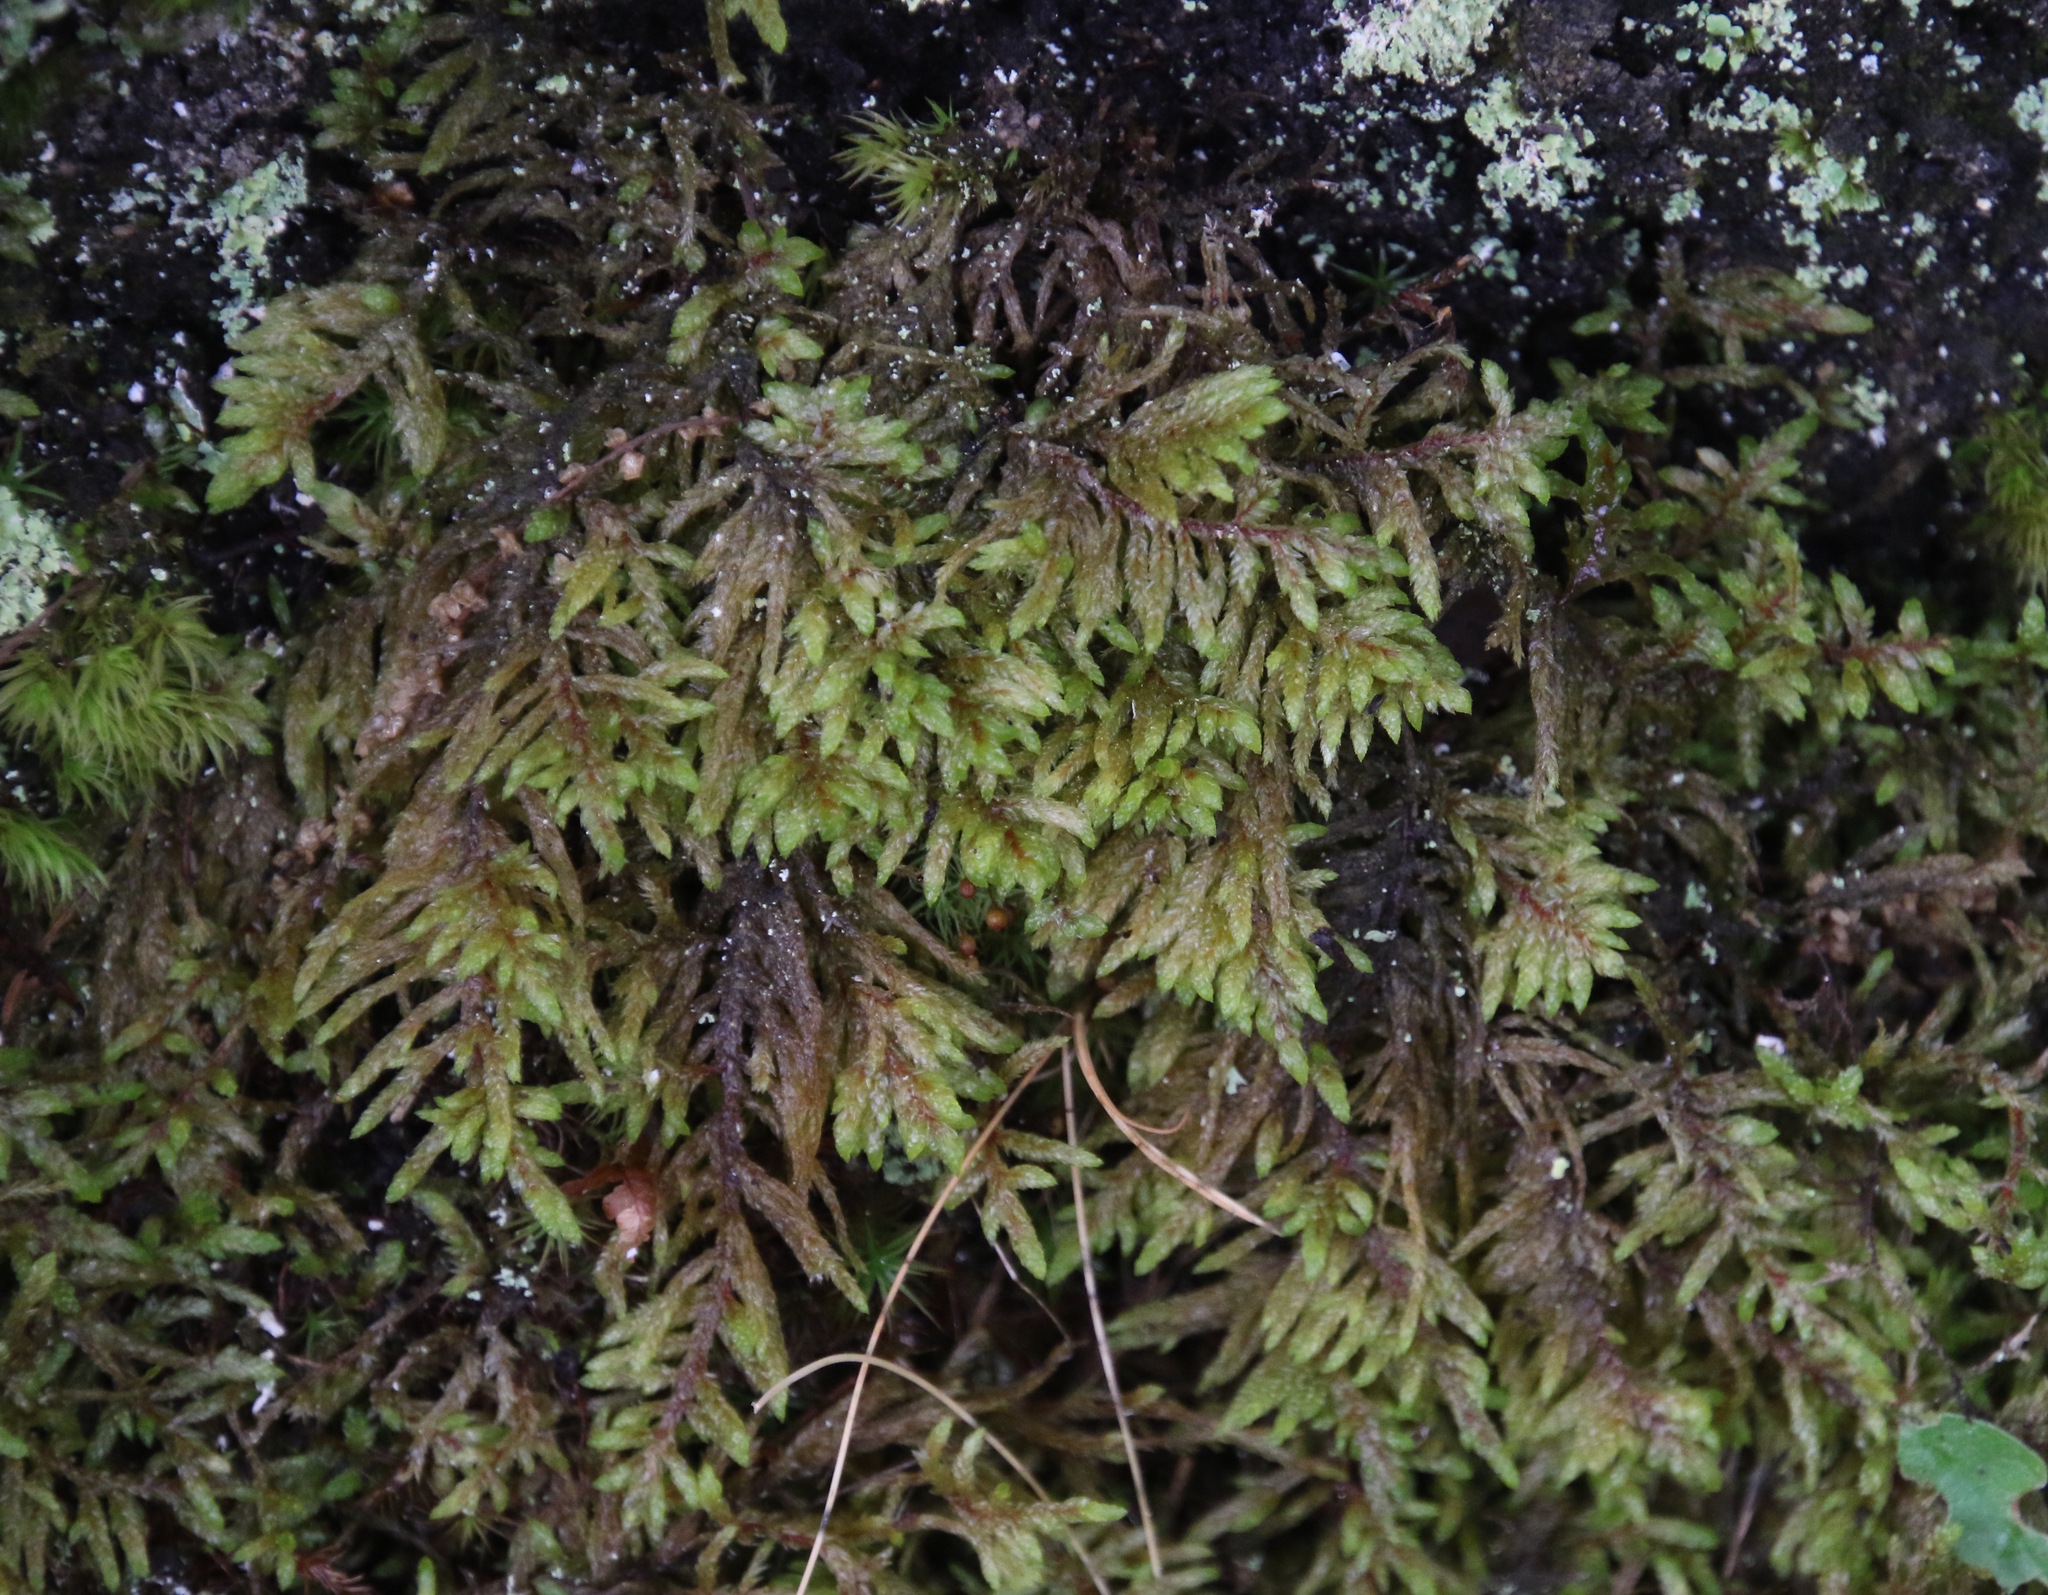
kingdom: Plantae
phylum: Bryophyta
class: Bryopsida
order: Hypnales
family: Hylocomiaceae
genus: Pleurozium
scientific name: Pleurozium schreberi
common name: Red-stemmed feather moss
